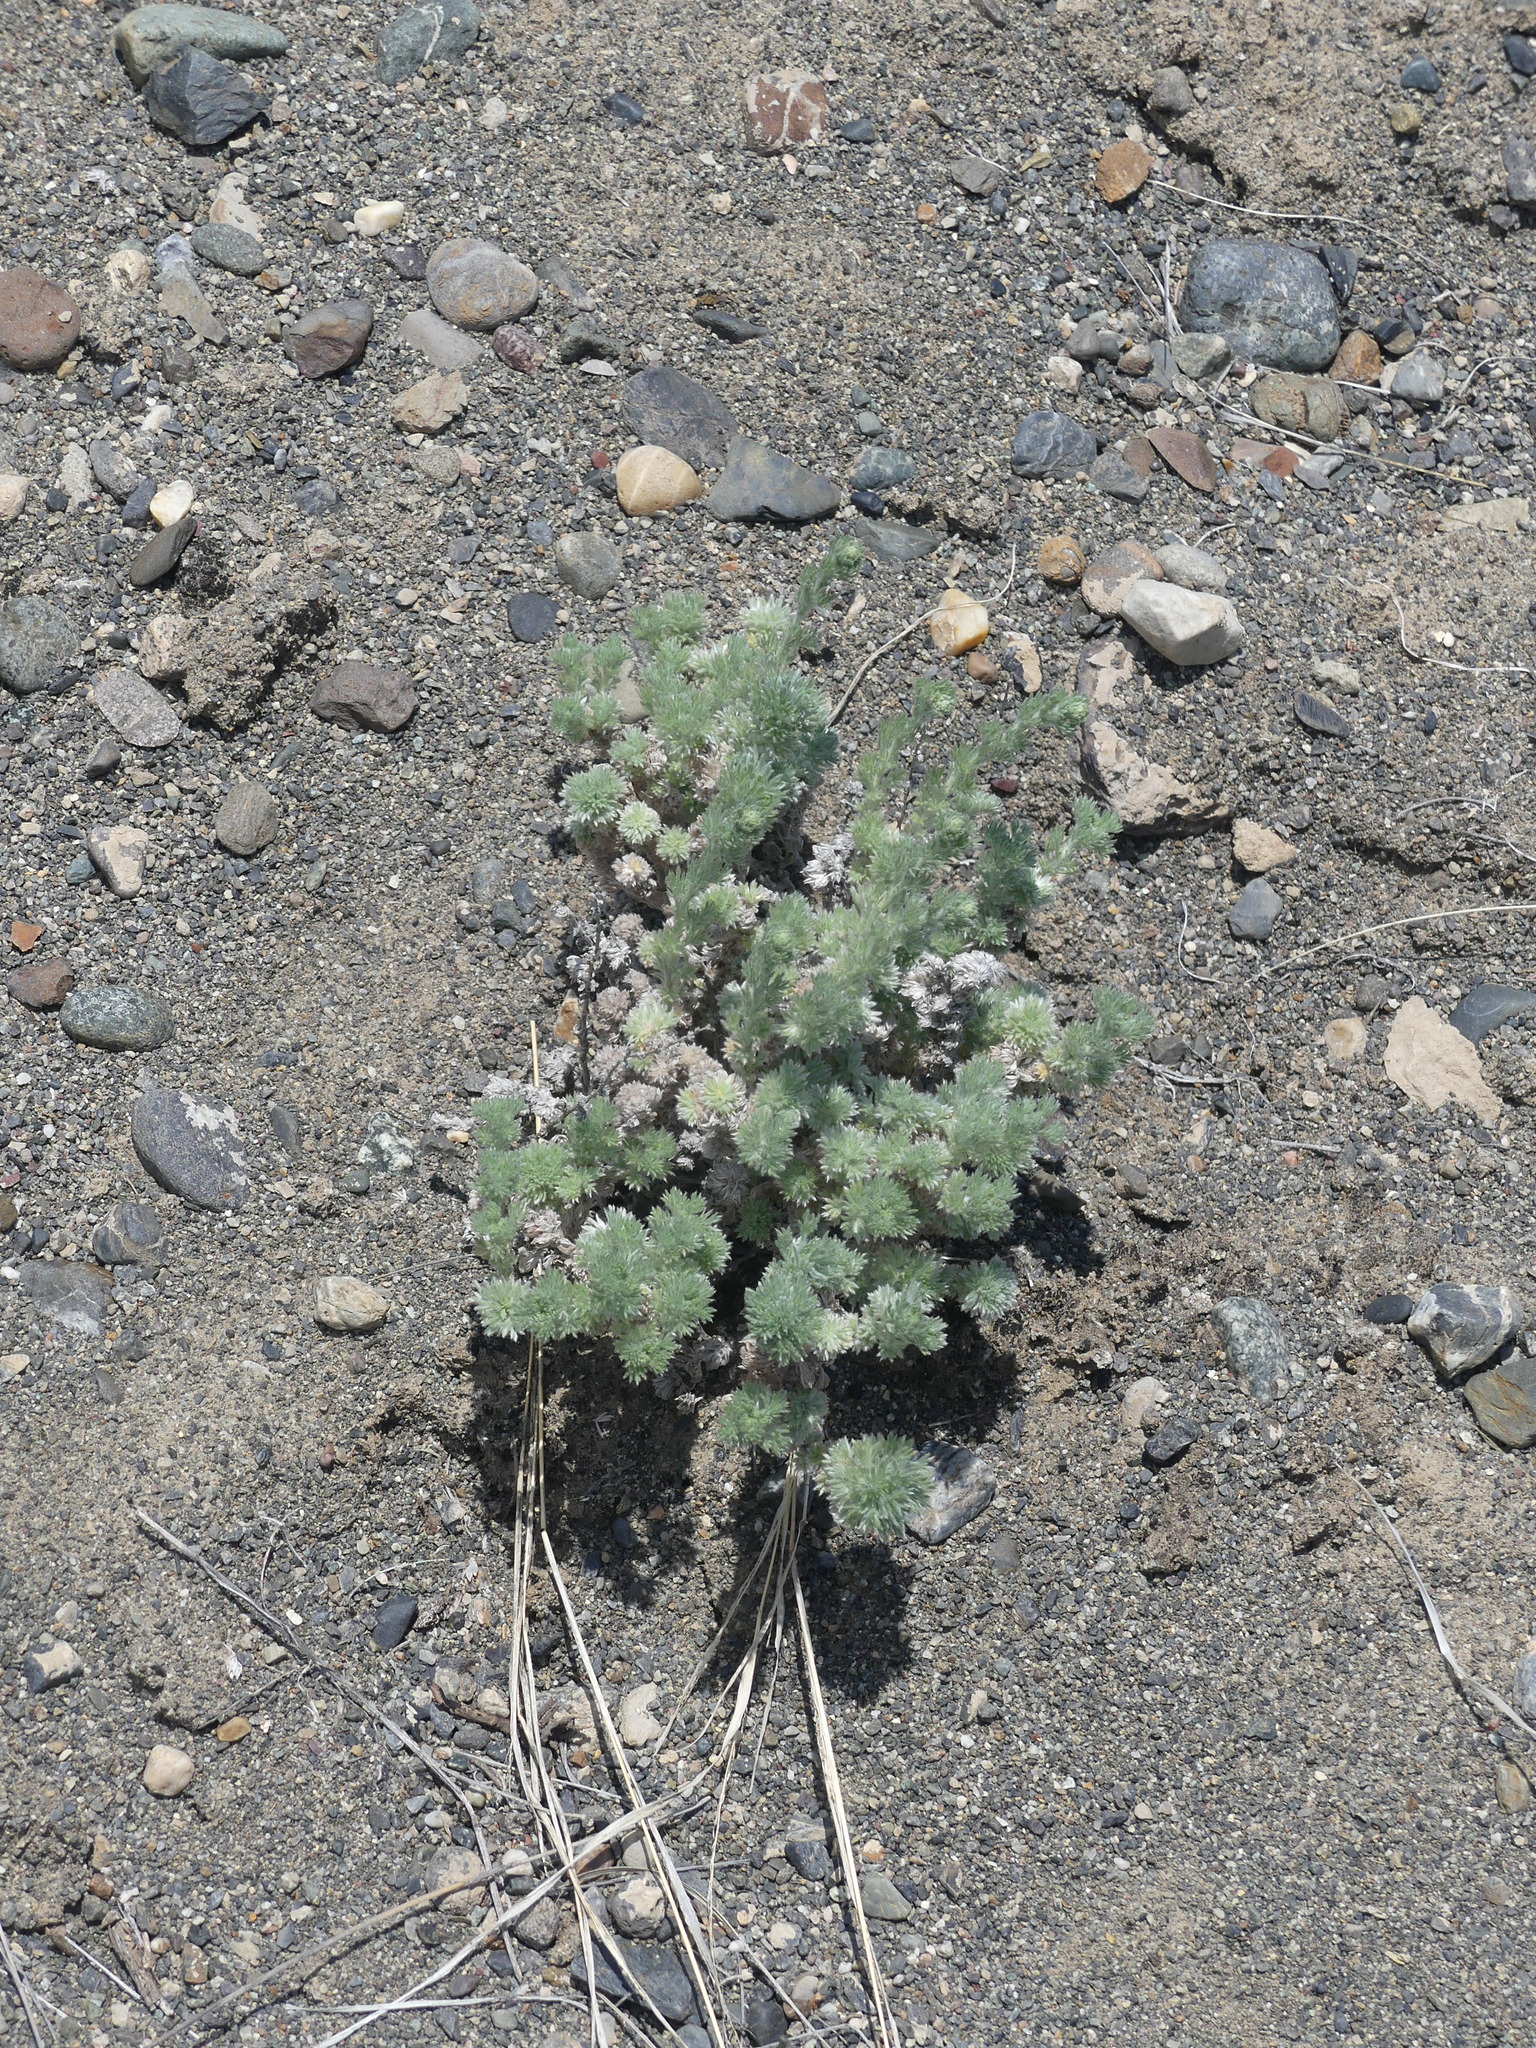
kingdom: Plantae
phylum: Tracheophyta
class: Magnoliopsida
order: Asterales
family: Asteraceae
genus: Artemisia
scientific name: Artemisia frigida
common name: Prairie sagewort
